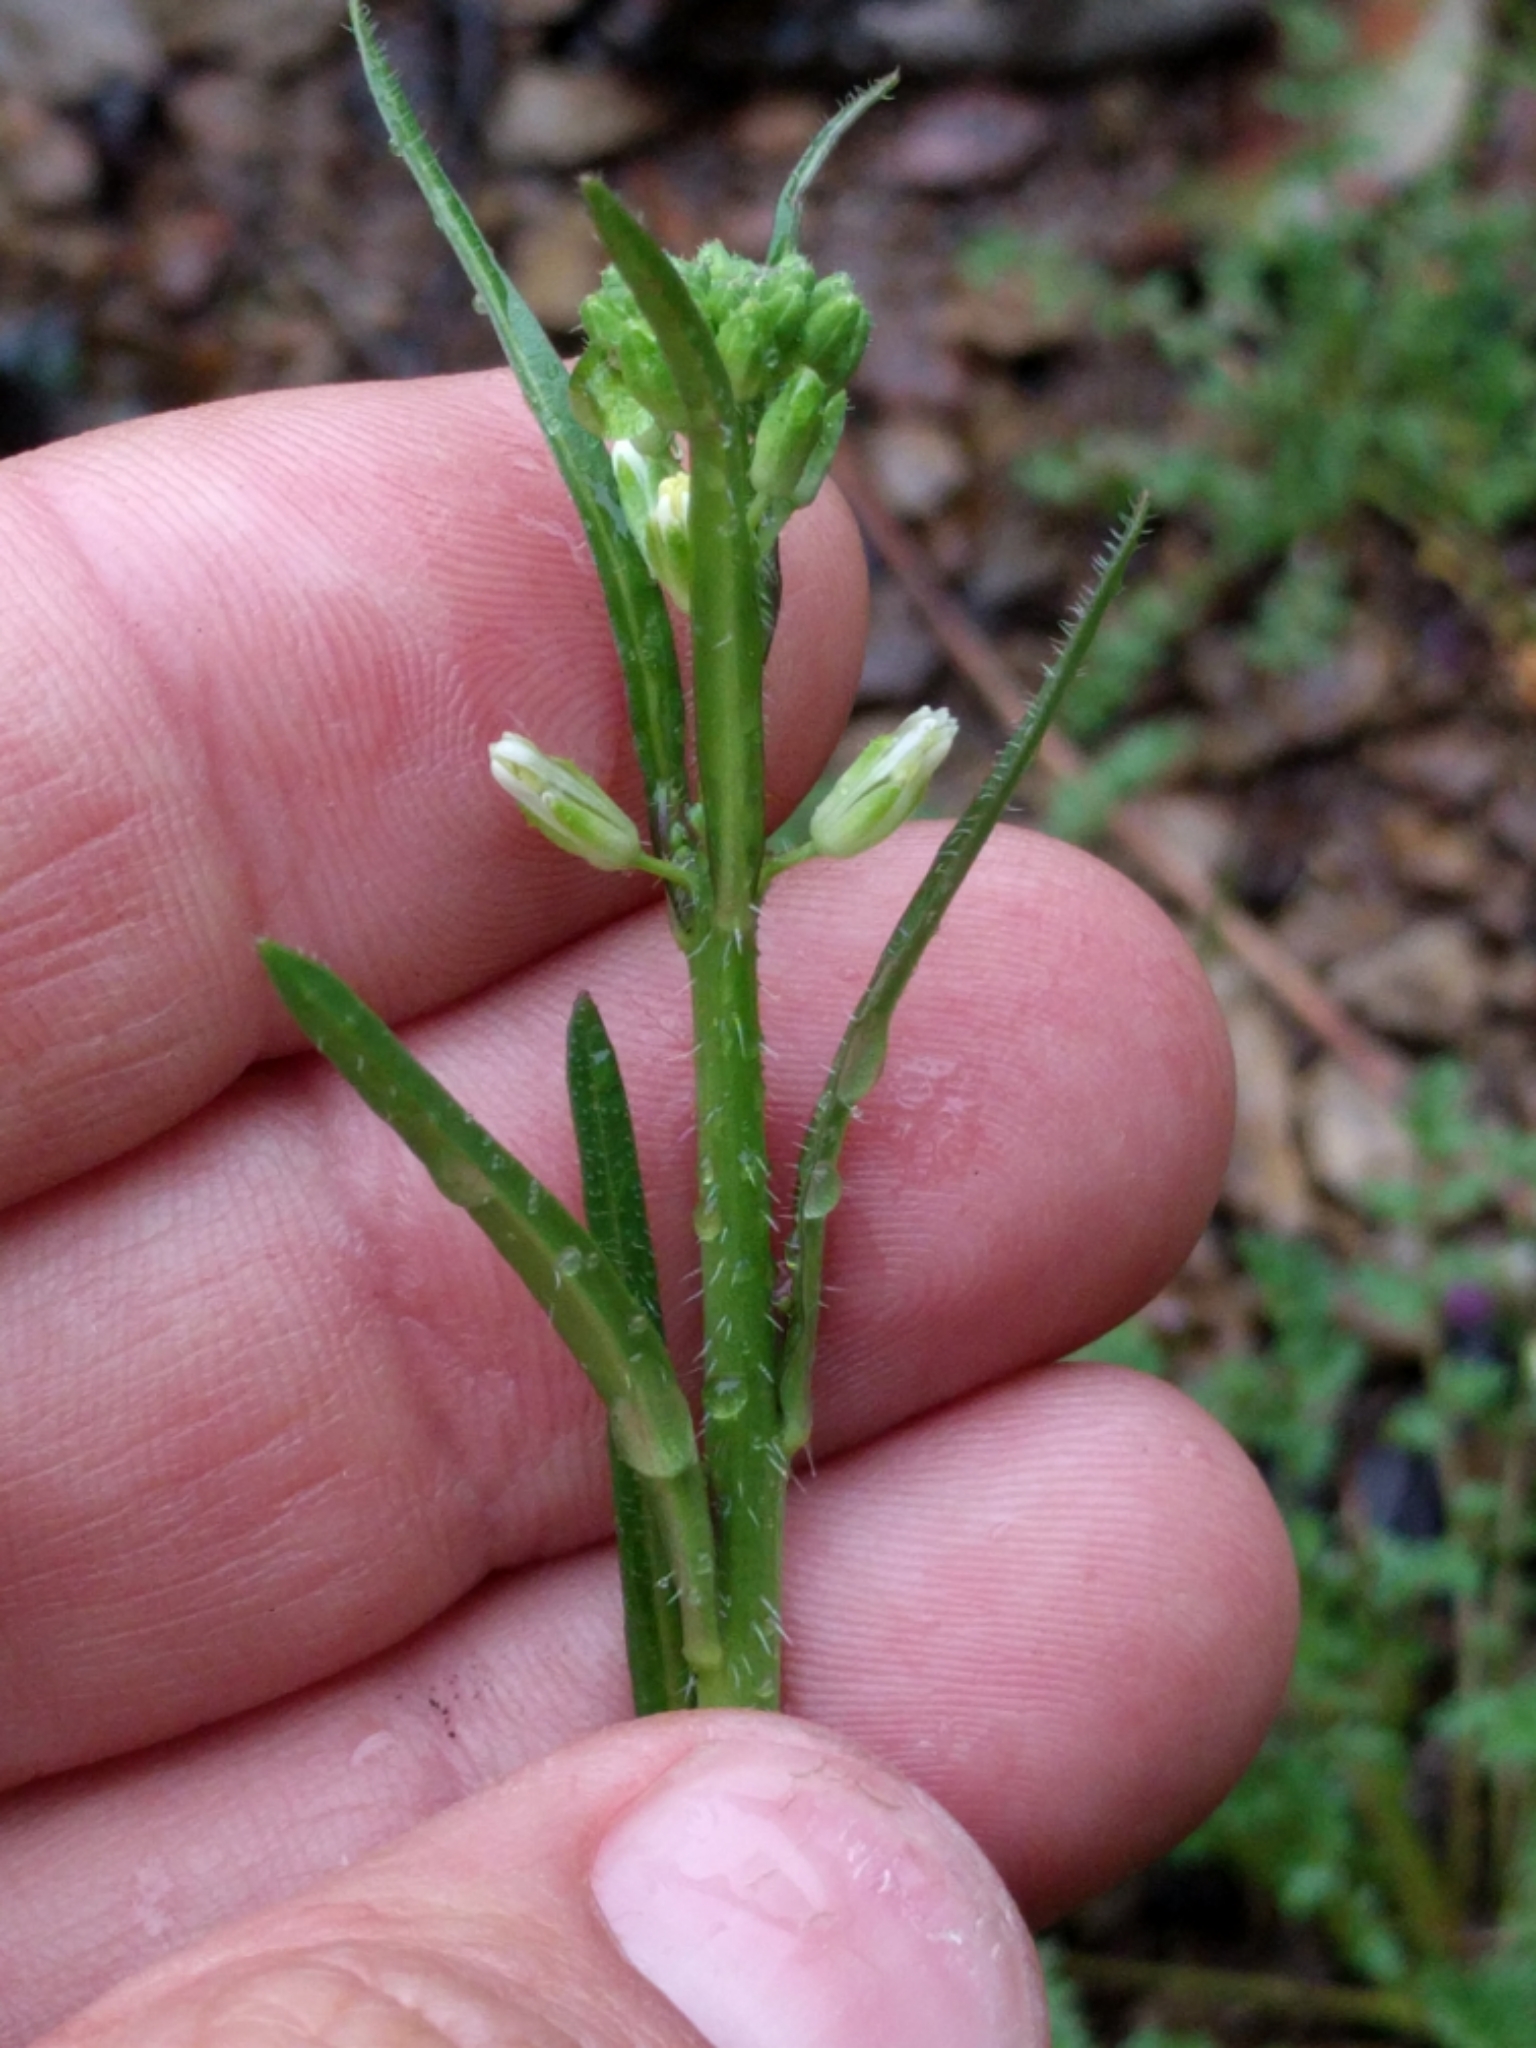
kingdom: Plantae
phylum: Tracheophyta
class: Magnoliopsida
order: Brassicales
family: Brassicaceae
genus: Streptanthus
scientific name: Streptanthus lasiophyllus
